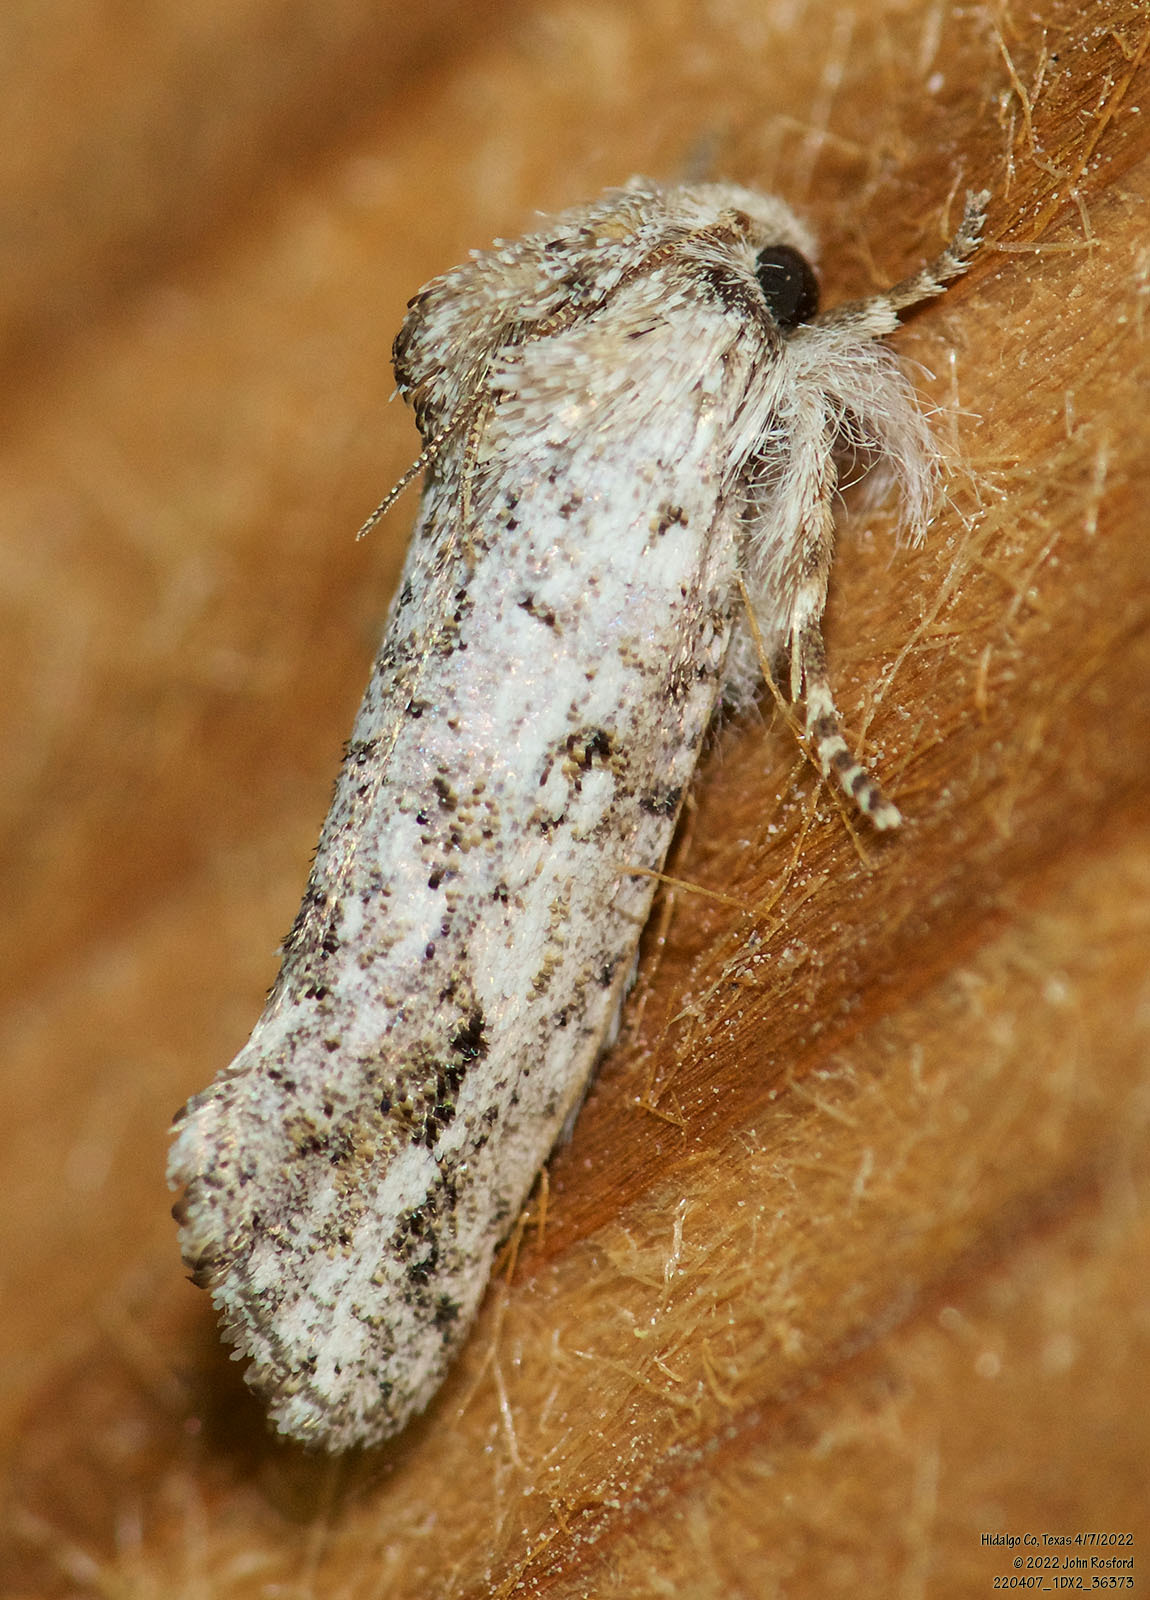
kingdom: Animalia
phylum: Arthropoda
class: Insecta
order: Lepidoptera
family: Tineidae
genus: Acrolophus
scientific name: Acrolophus griseus
